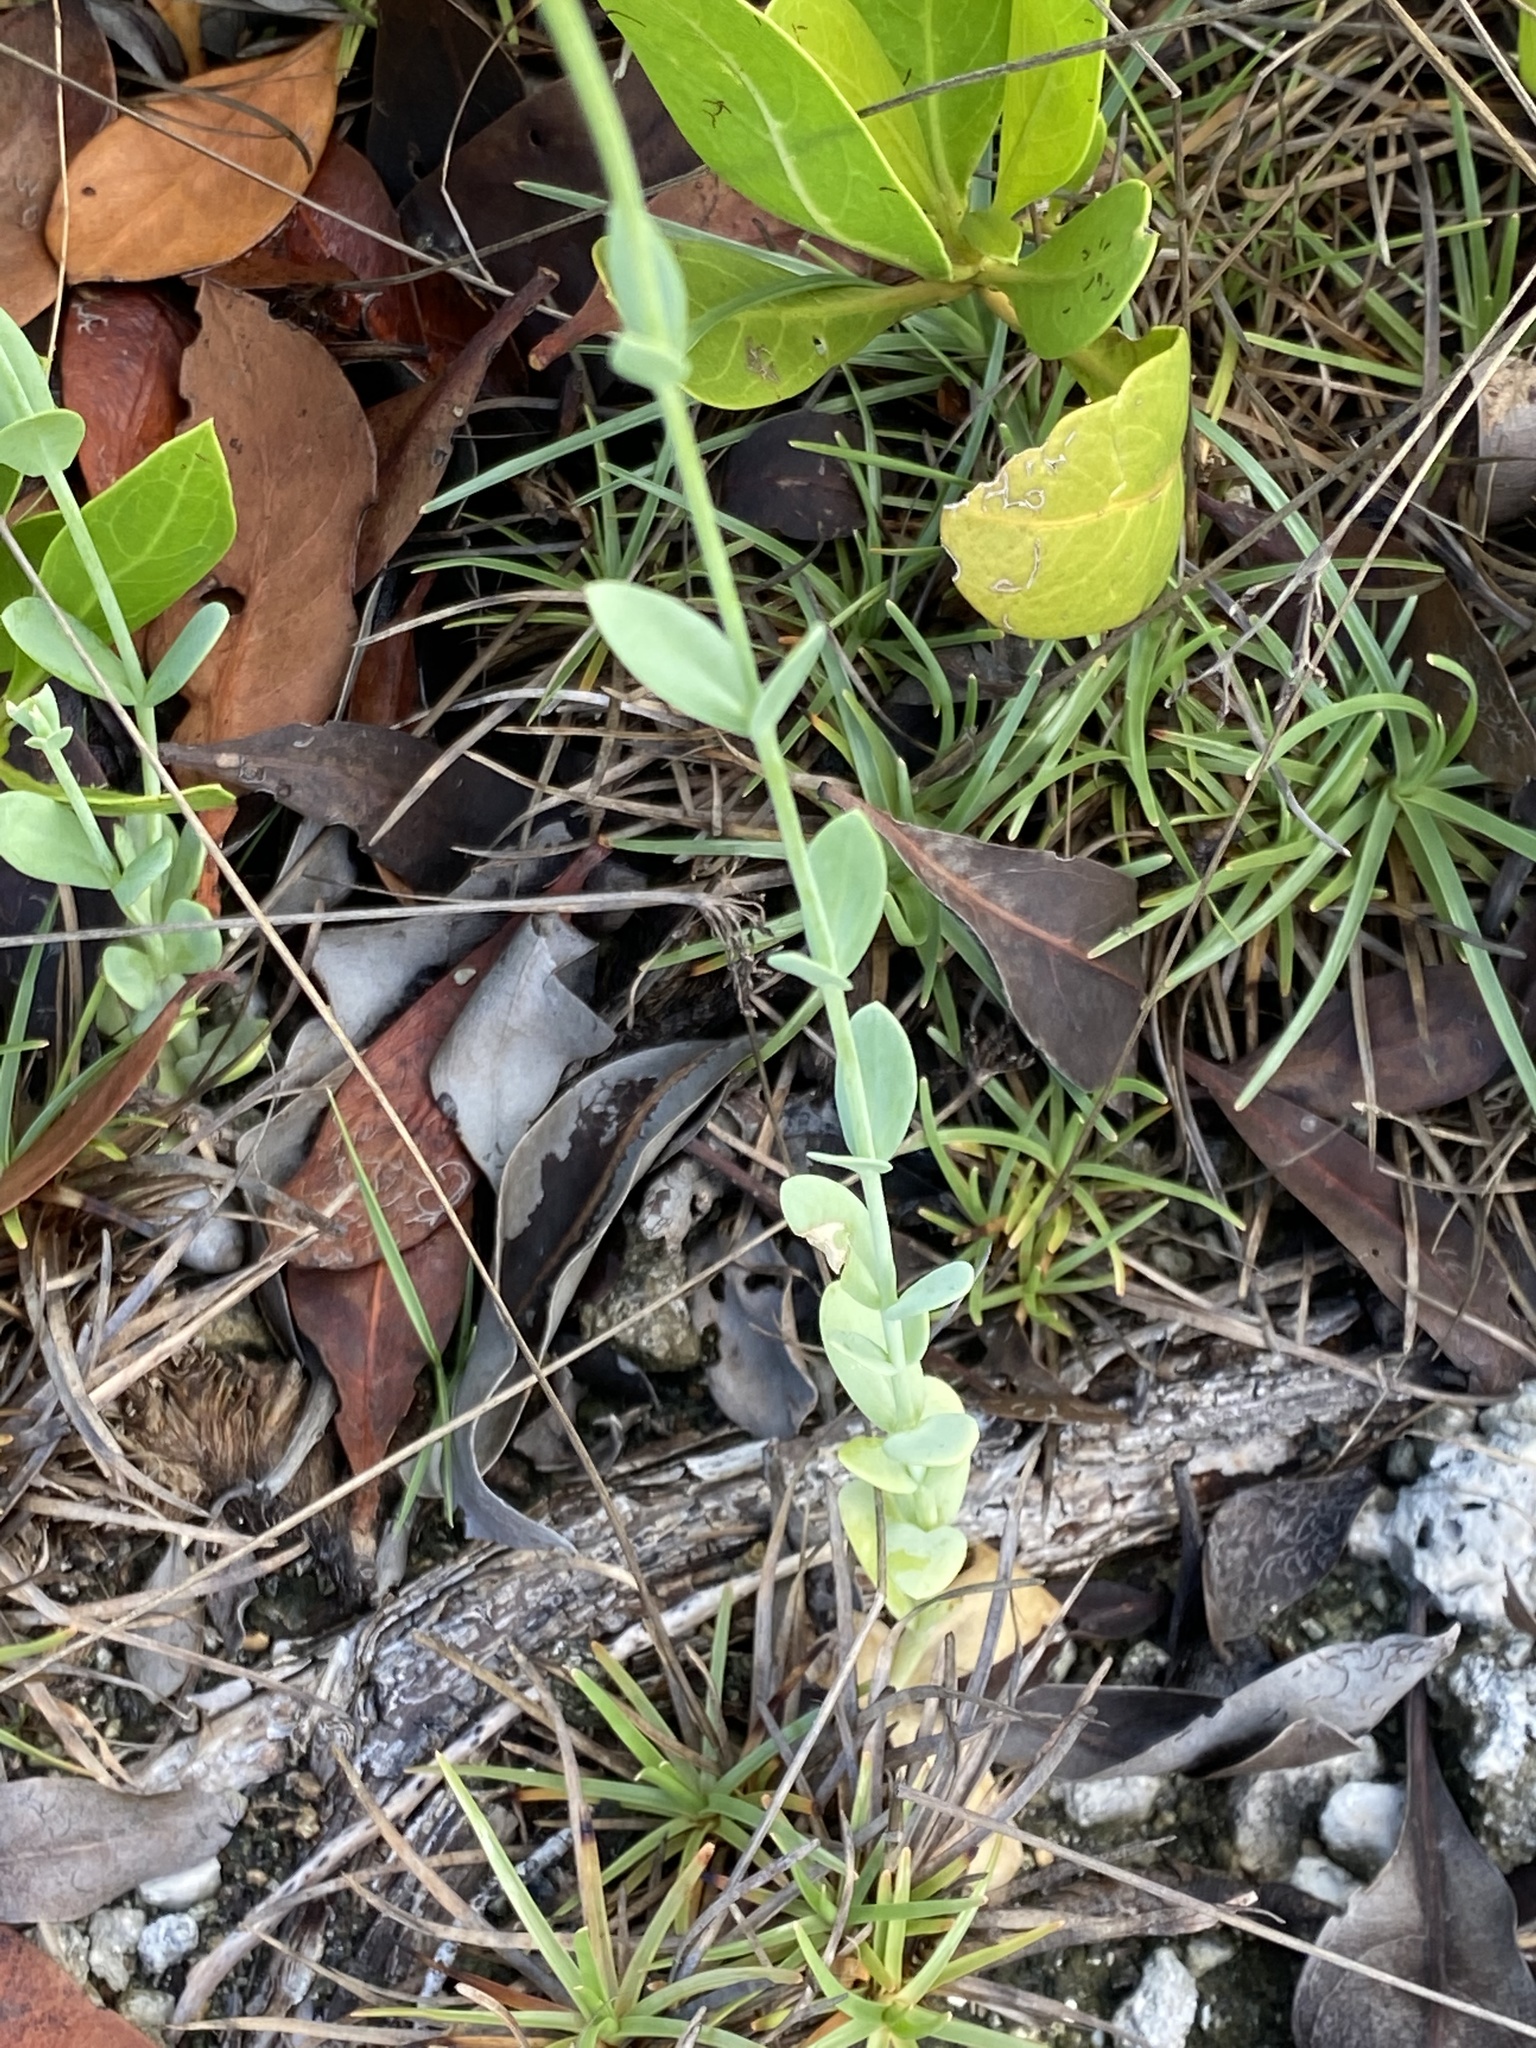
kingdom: Plantae
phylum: Tracheophyta
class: Magnoliopsida
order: Gentianales
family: Gentianaceae
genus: Eustoma
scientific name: Eustoma exaltatum
